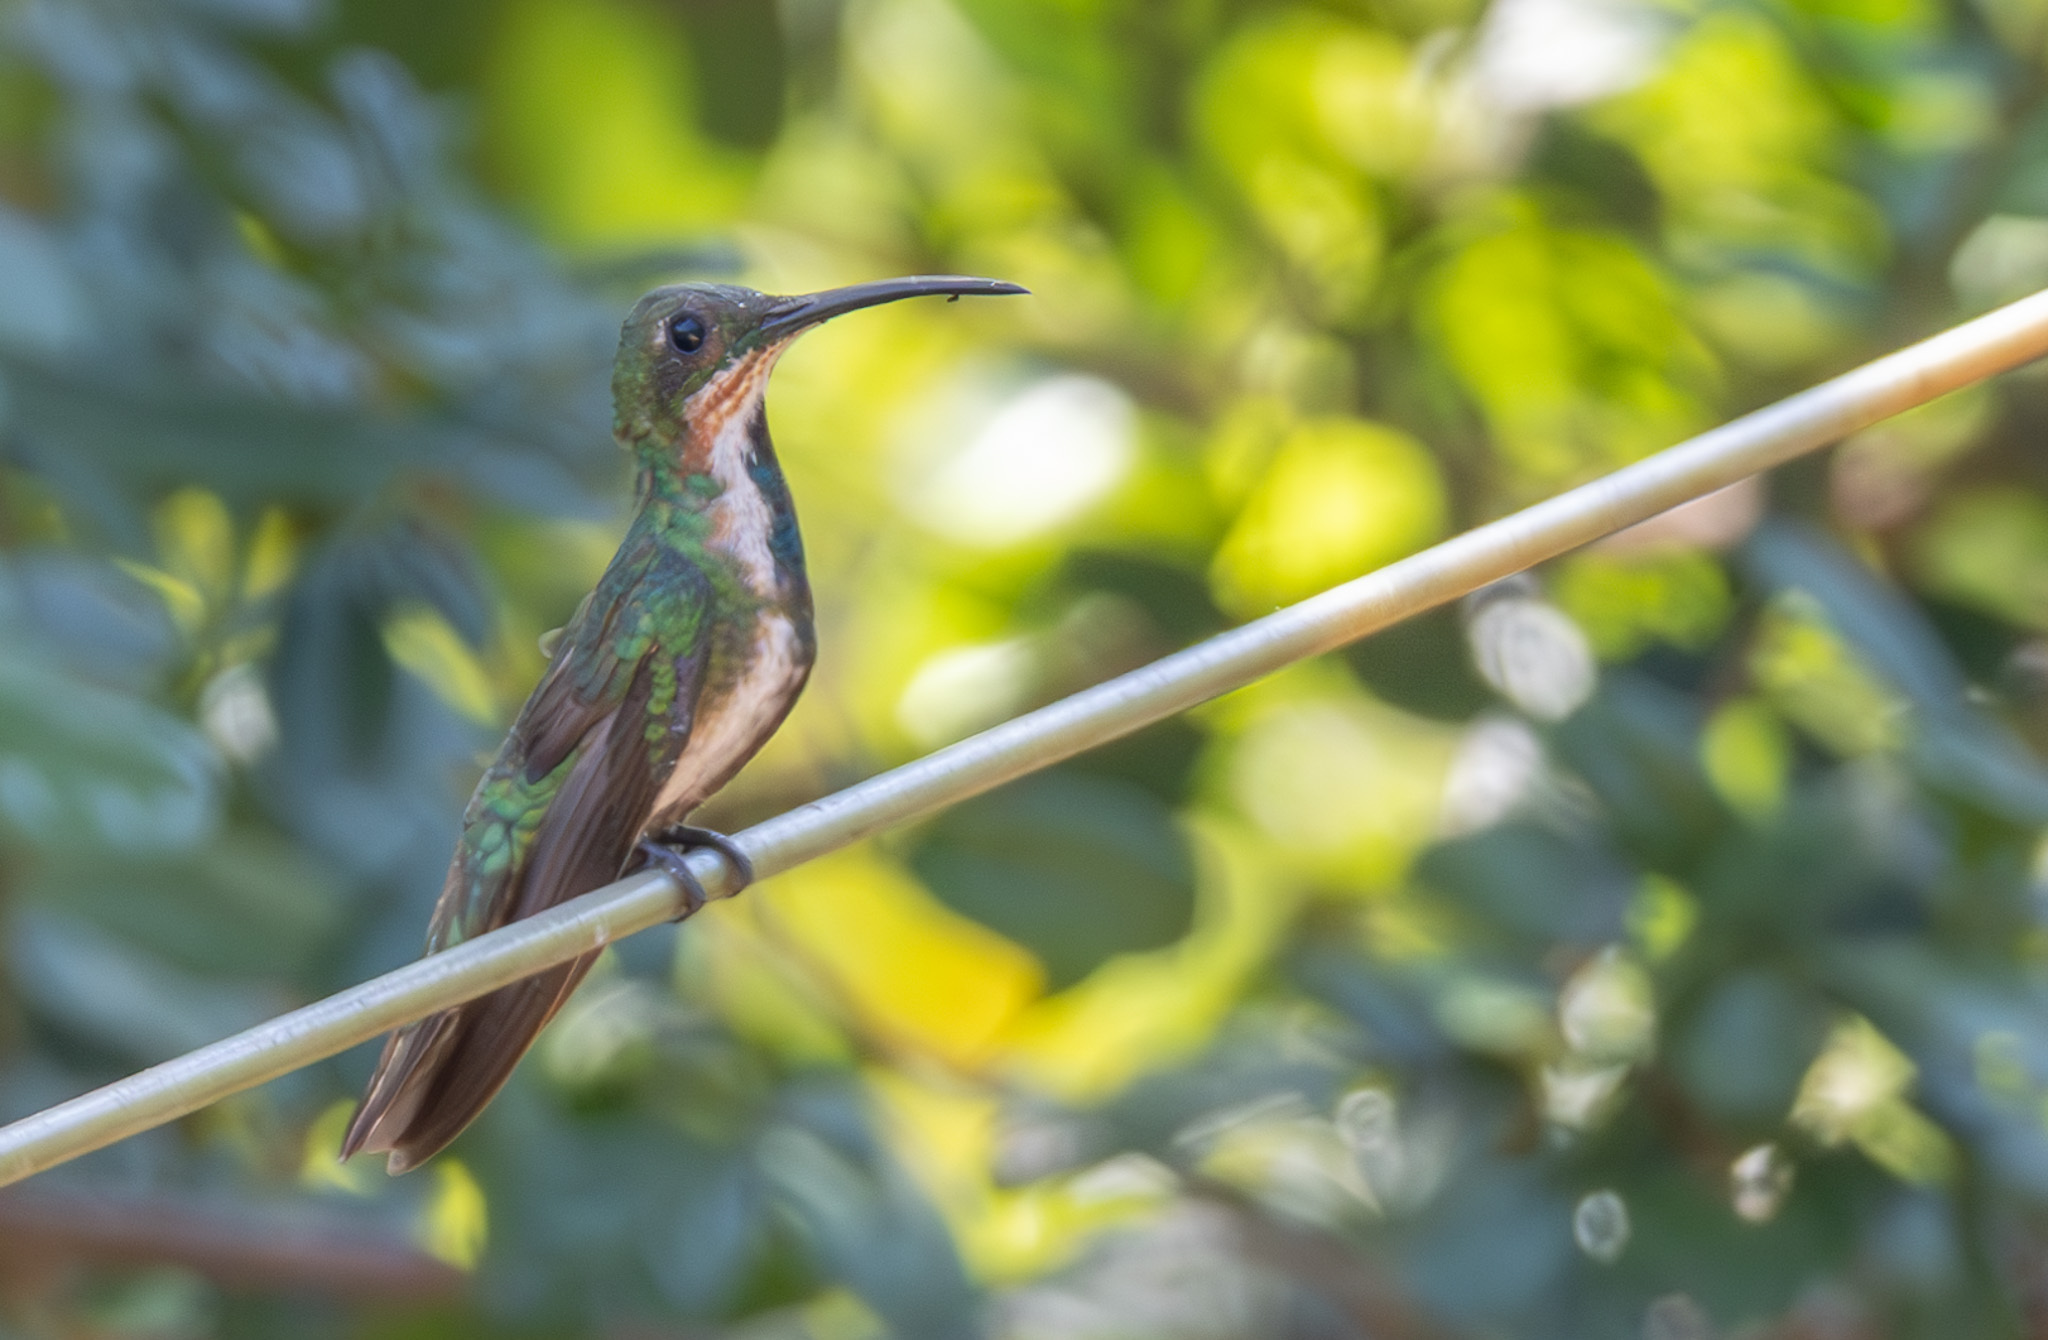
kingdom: Animalia
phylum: Chordata
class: Aves
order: Apodiformes
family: Trochilidae
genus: Anthracothorax
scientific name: Anthracothorax prevostii
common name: Green-breasted mango
